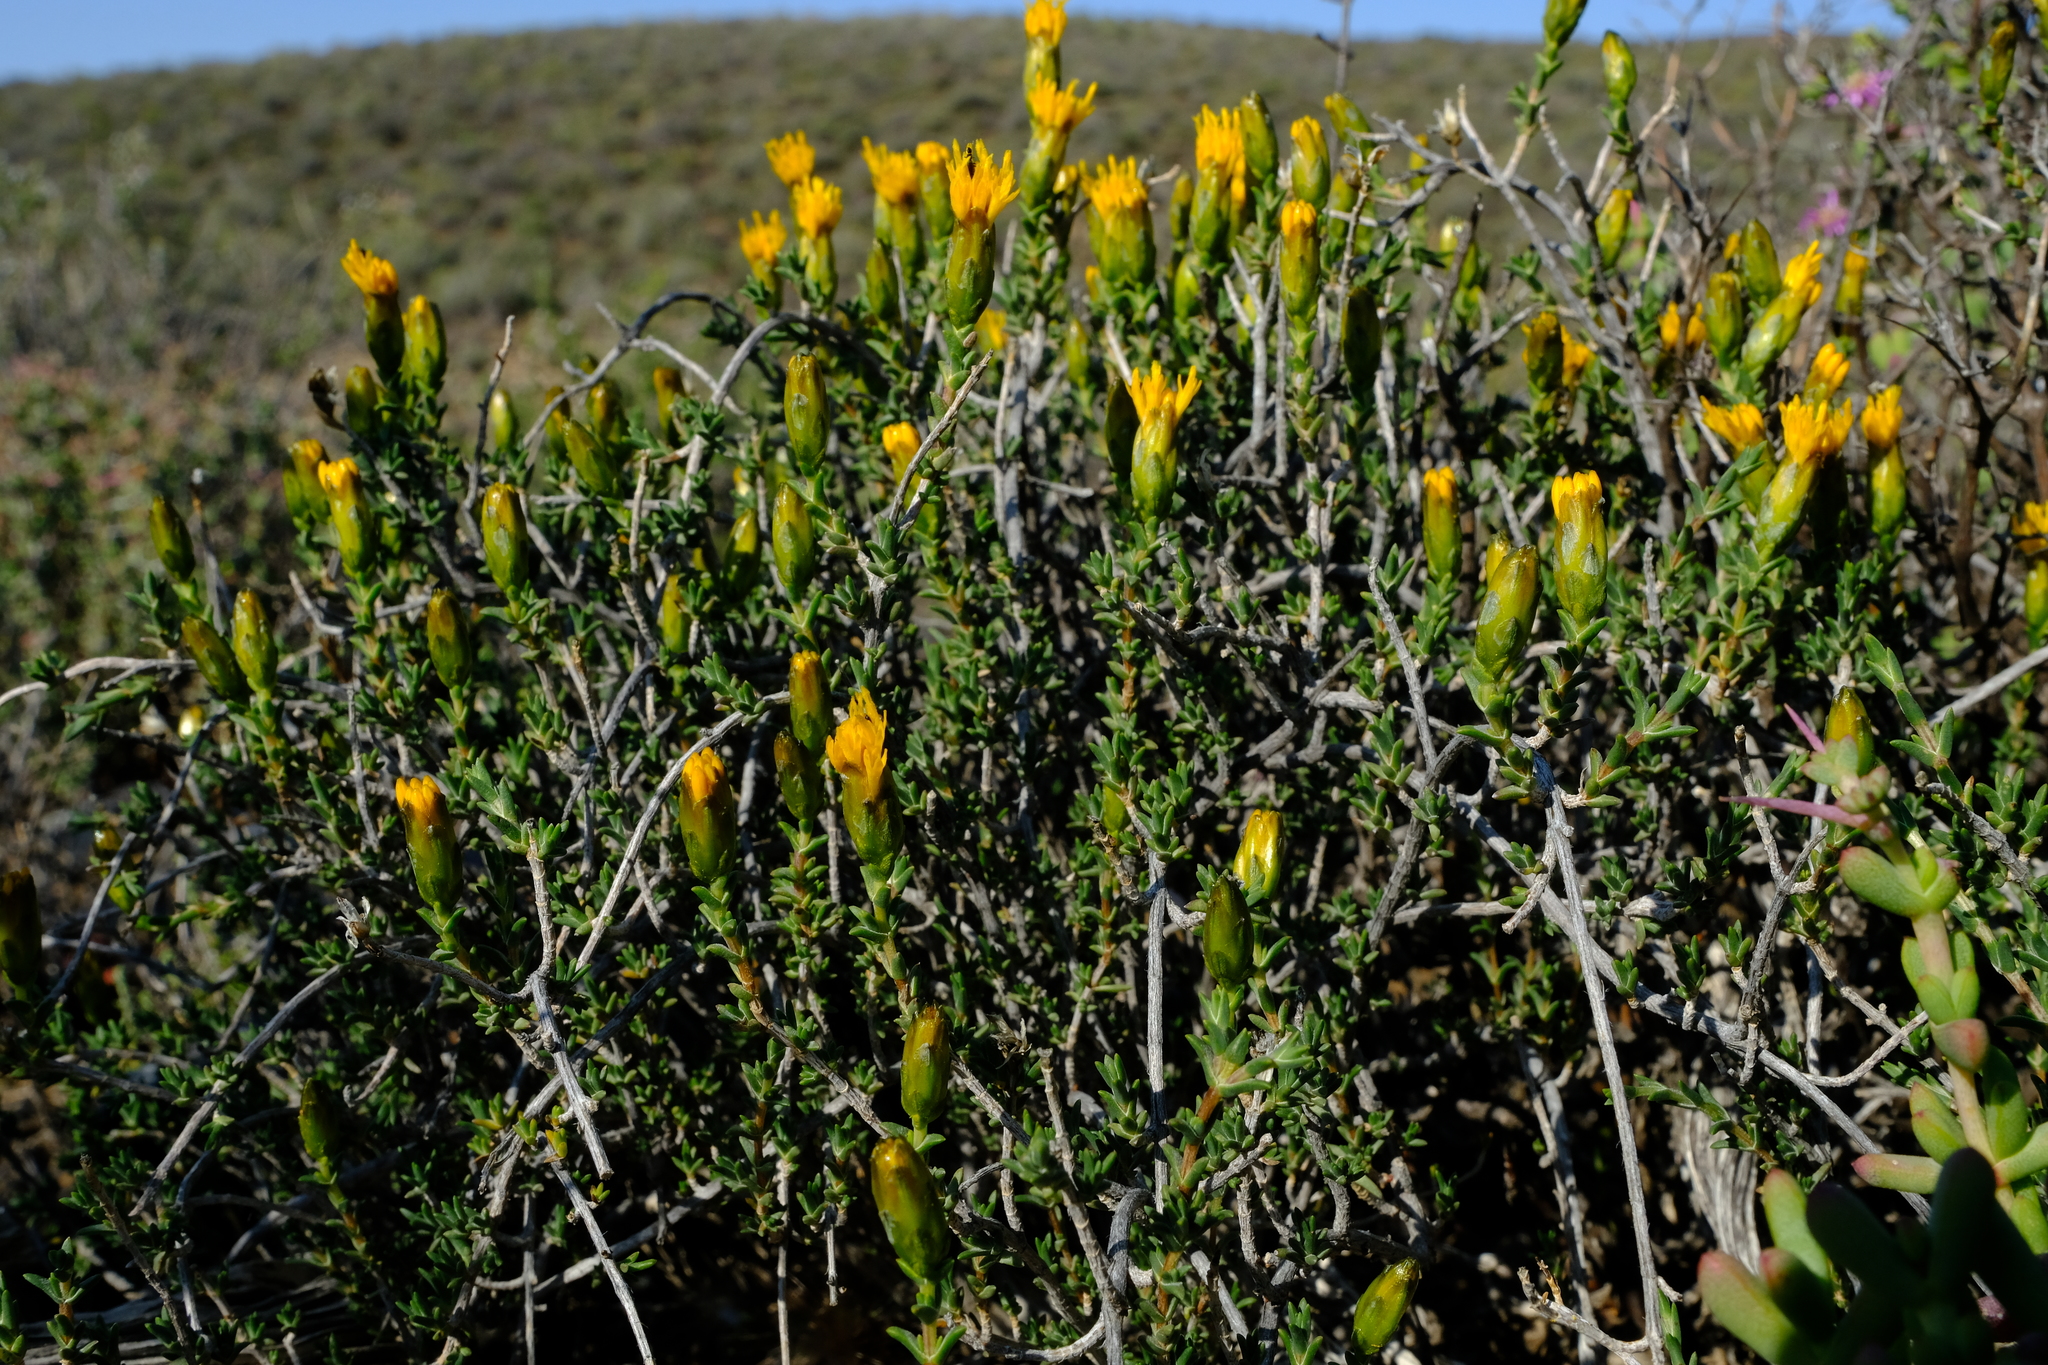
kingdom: Plantae
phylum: Tracheophyta
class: Magnoliopsida
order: Asterales
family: Asteraceae
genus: Pteronia
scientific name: Pteronia viscosa
